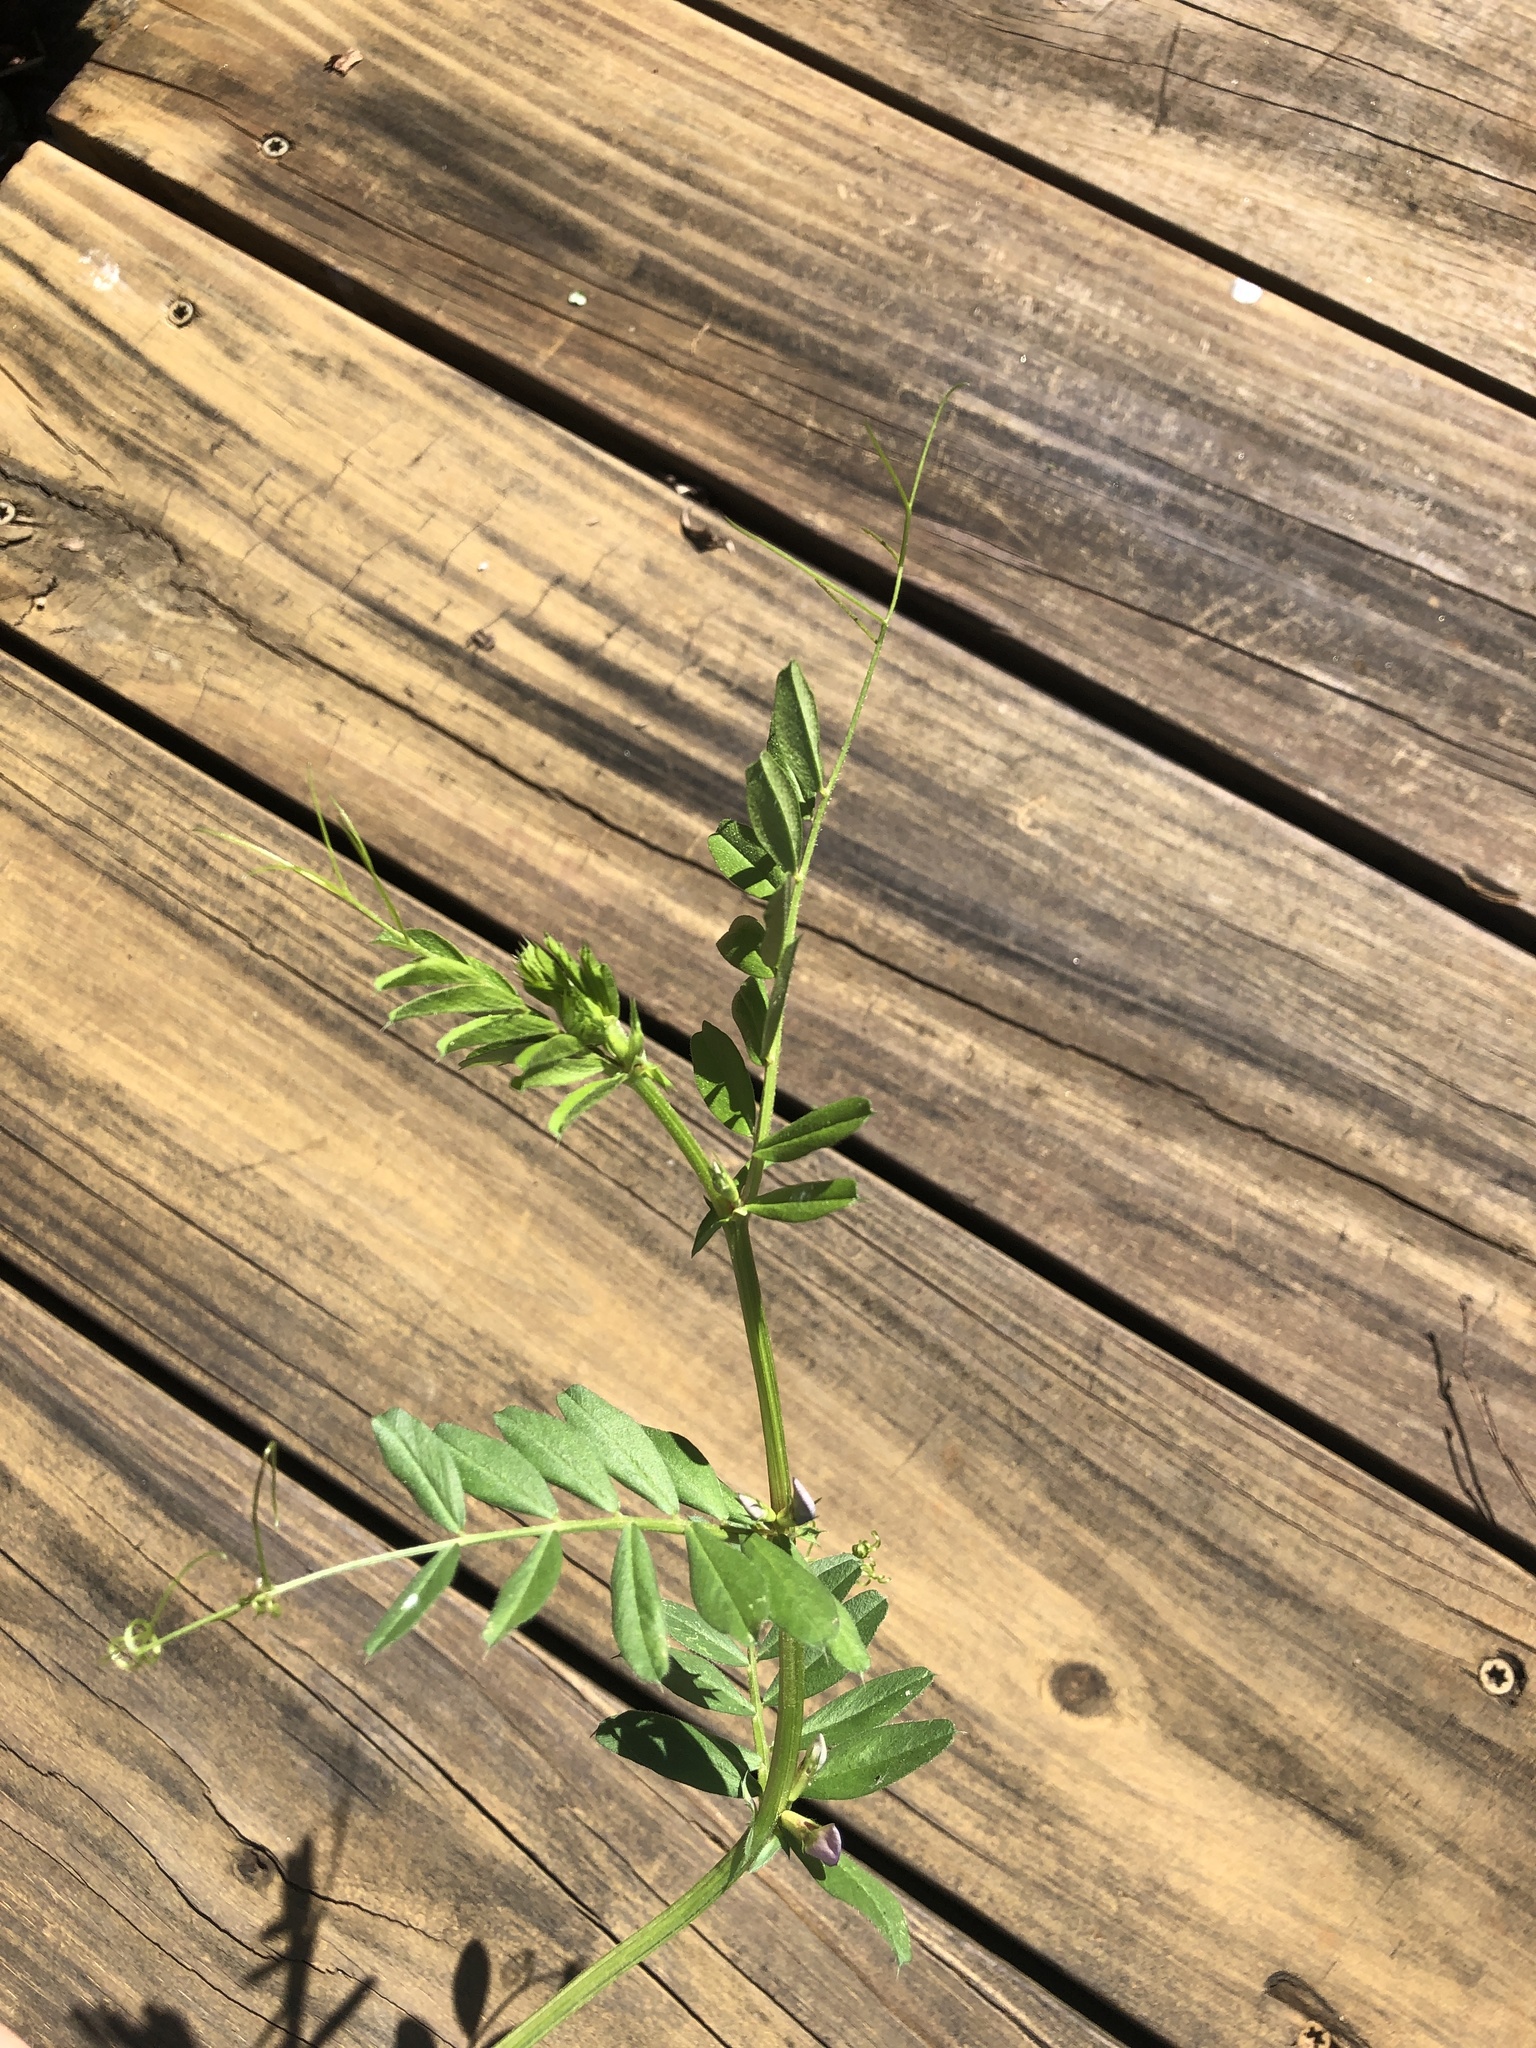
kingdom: Plantae
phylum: Tracheophyta
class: Magnoliopsida
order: Fabales
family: Fabaceae
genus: Vicia
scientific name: Vicia sativa
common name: Garden vetch
